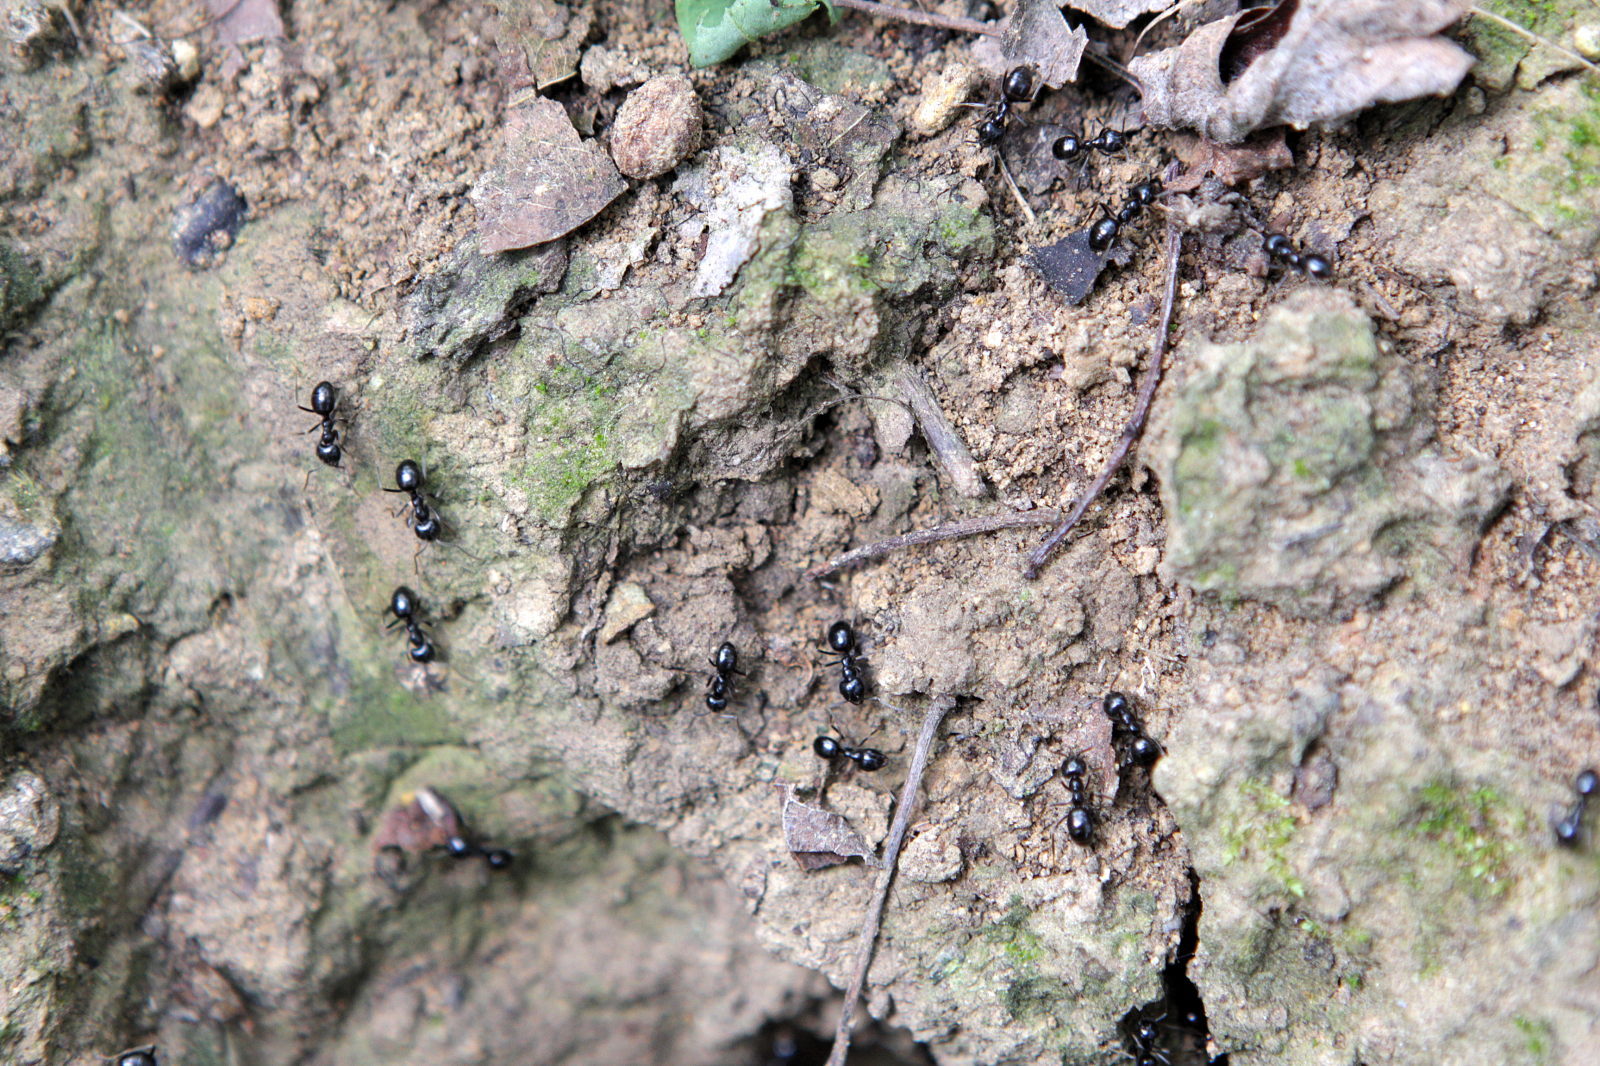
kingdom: Animalia
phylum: Arthropoda
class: Insecta
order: Hymenoptera
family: Formicidae
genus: Lasius
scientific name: Lasius fuliginosus
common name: Jet ant
